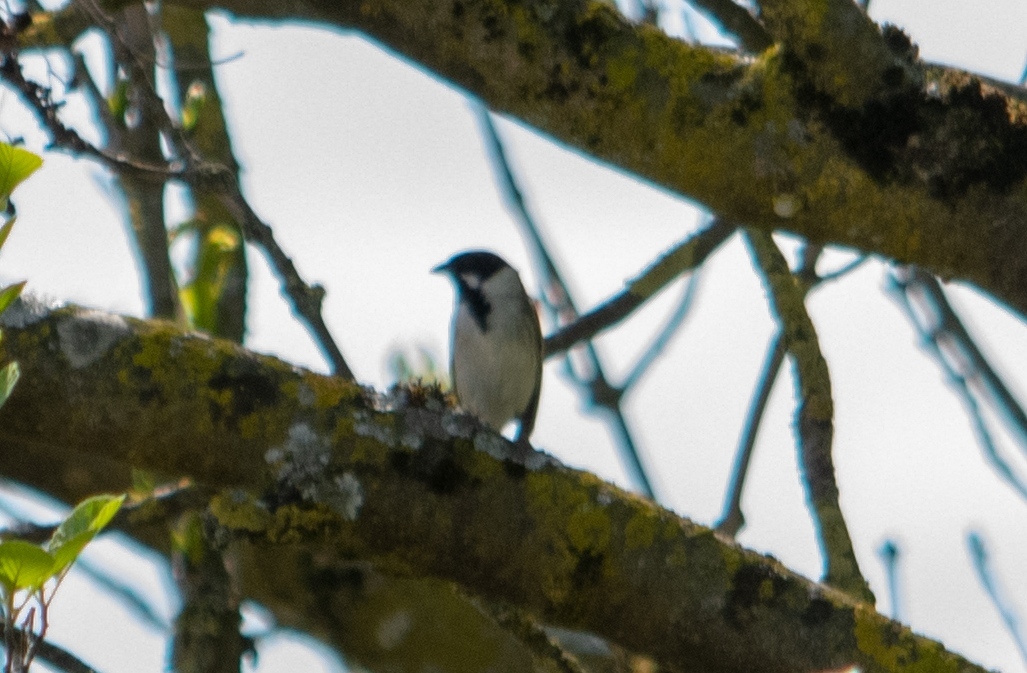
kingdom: Animalia
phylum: Chordata
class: Aves
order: Passeriformes
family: Emberizidae
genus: Emberiza
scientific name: Emberiza schoeniclus
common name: Reed bunting
